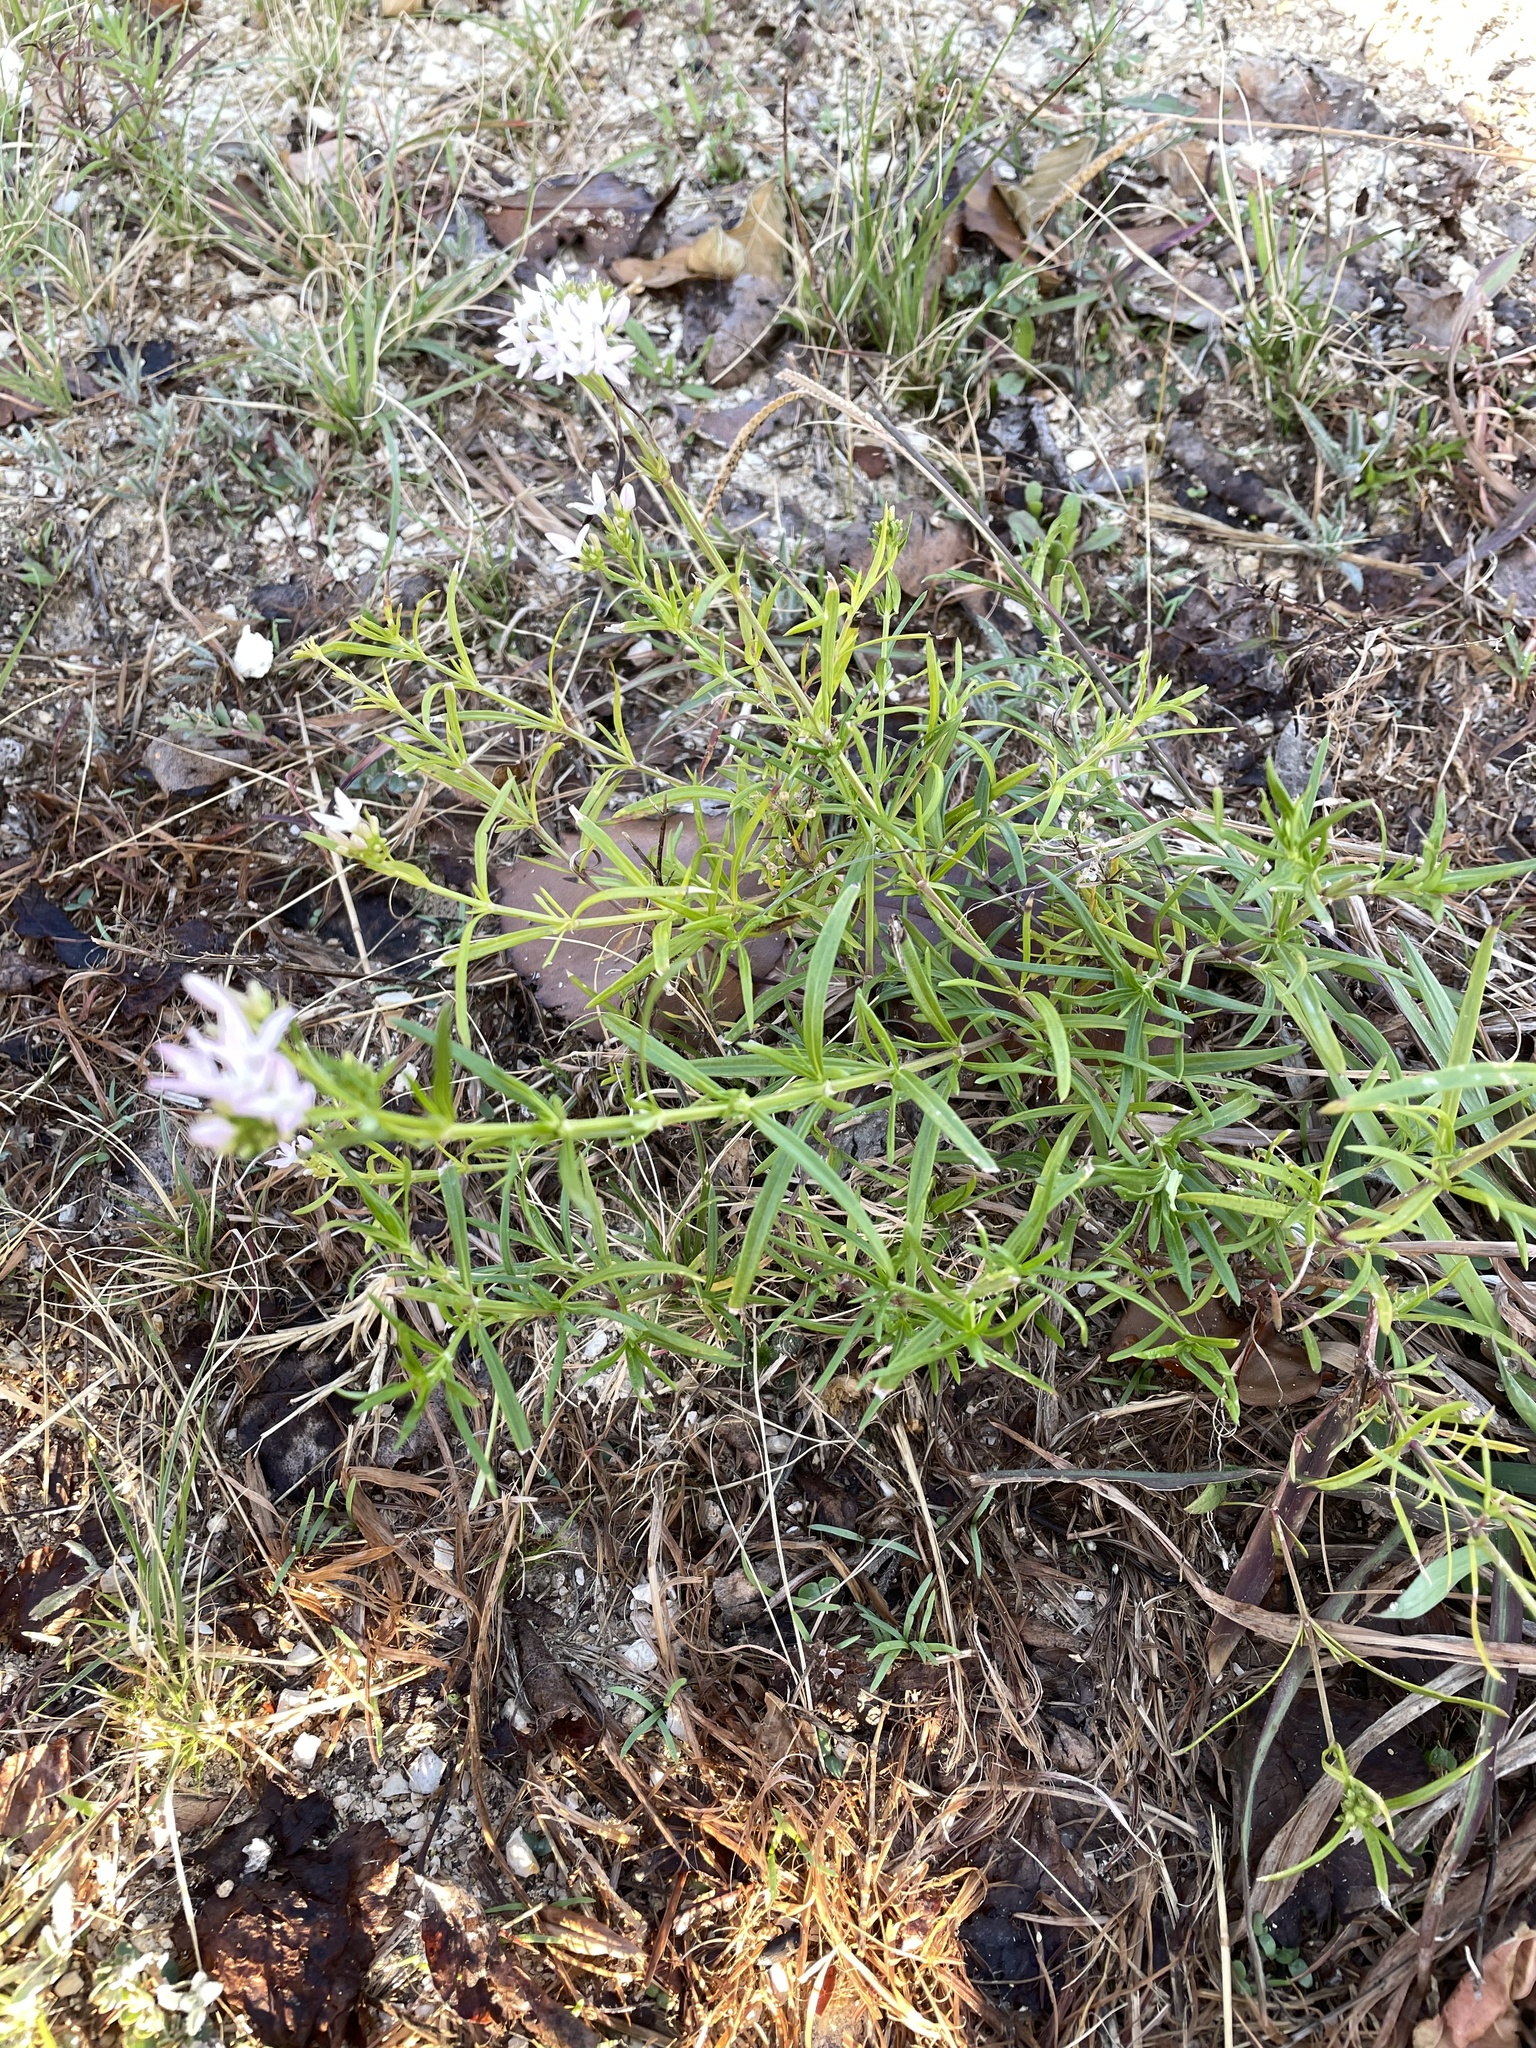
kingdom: Plantae
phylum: Tracheophyta
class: Magnoliopsida
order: Gentianales
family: Rubiaceae
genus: Stenaria
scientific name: Stenaria nigricans
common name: Diamondflowers
